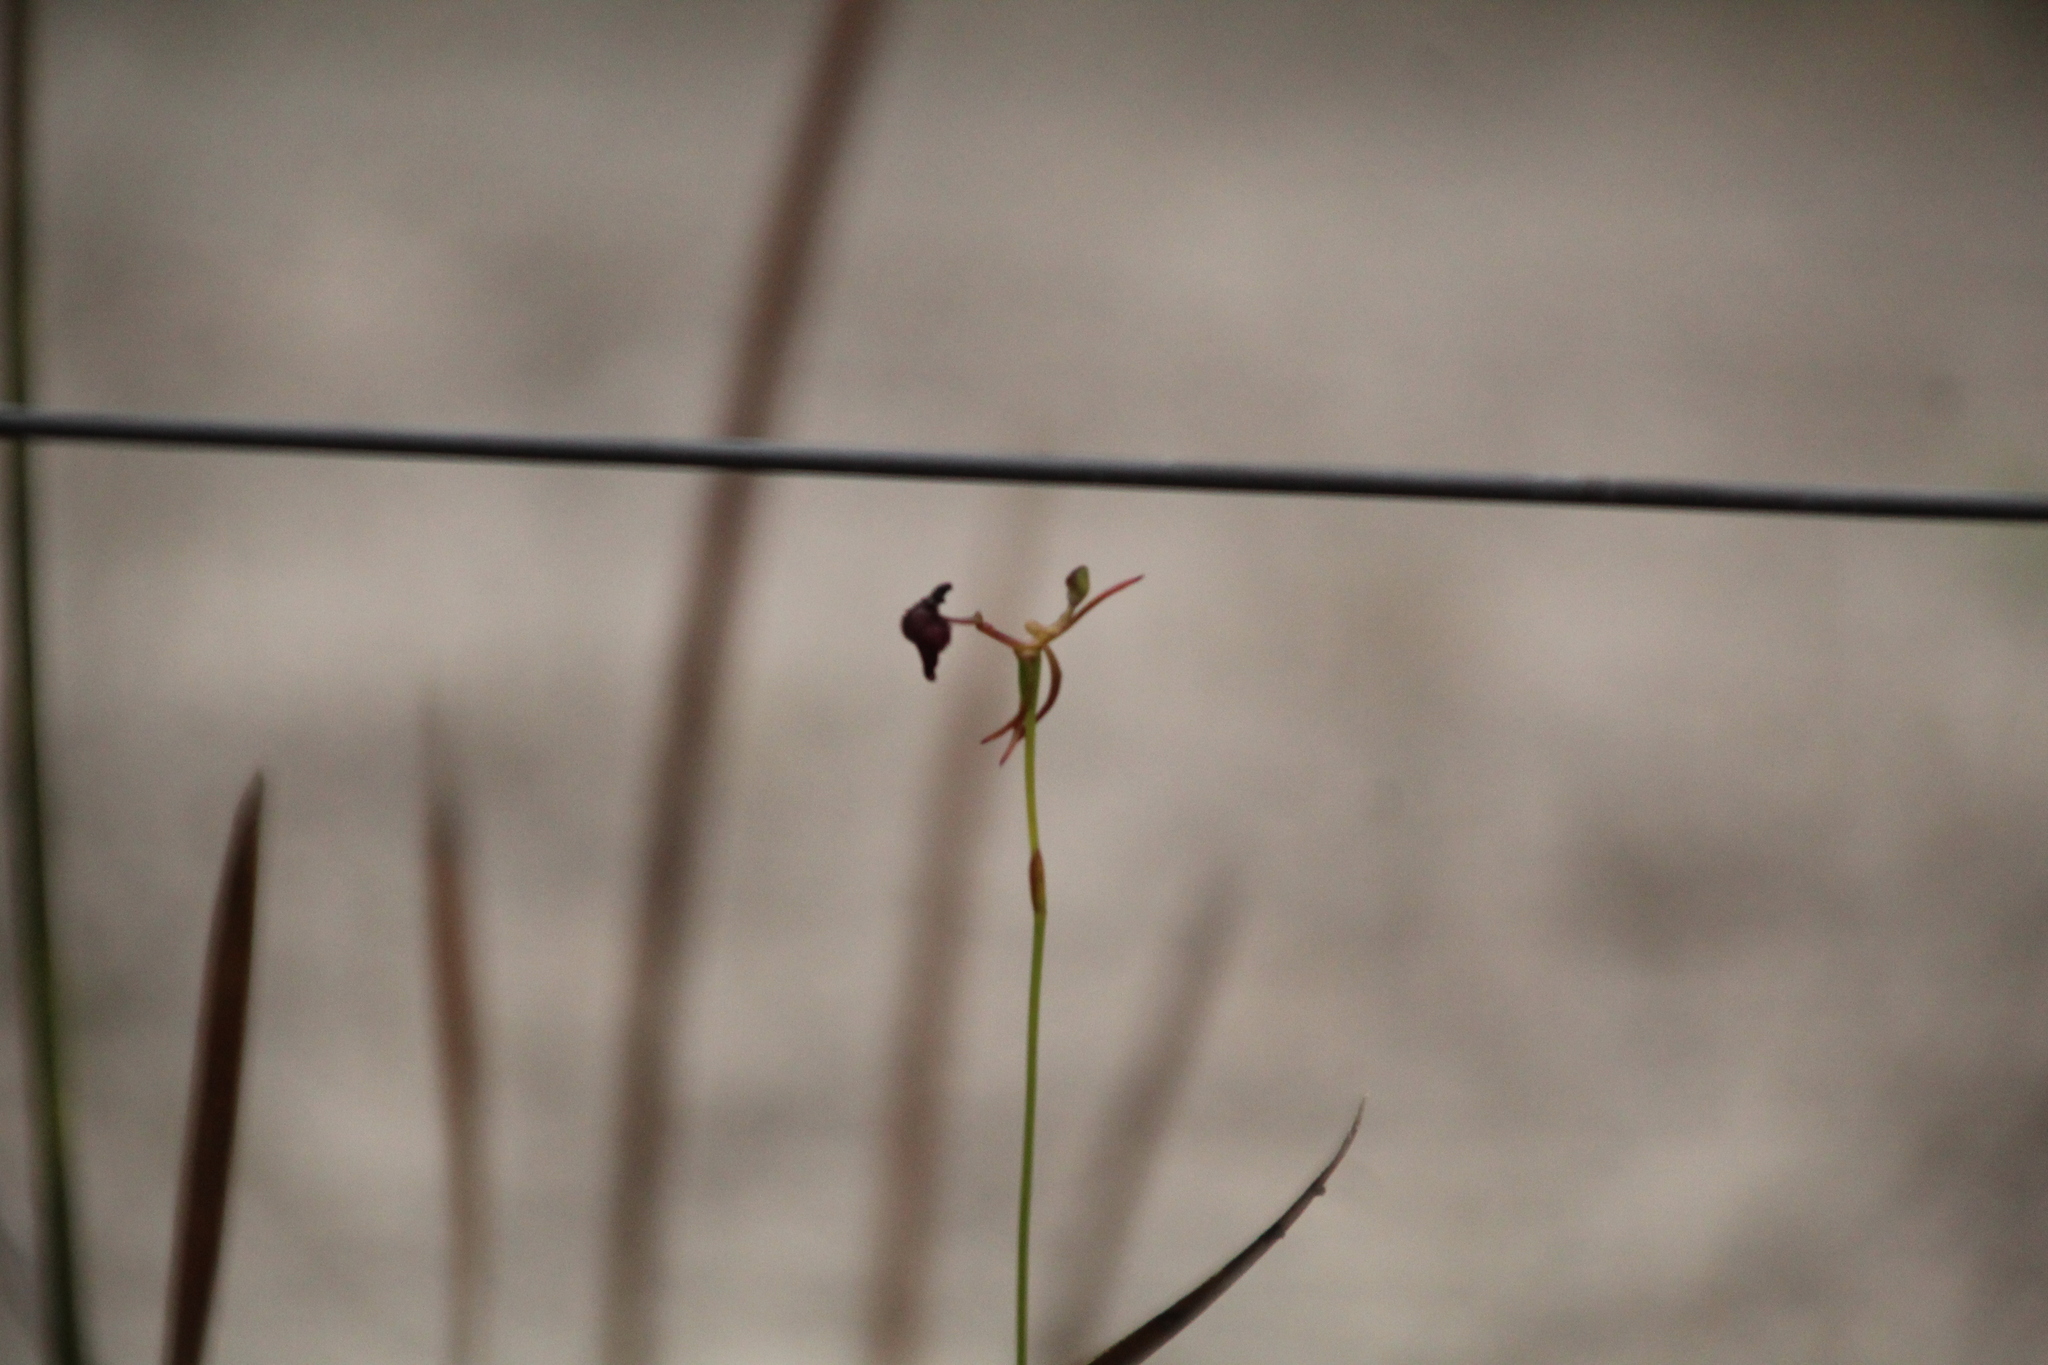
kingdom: Plantae
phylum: Tracheophyta
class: Liliopsida
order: Asparagales
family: Orchidaceae
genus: Drakaea
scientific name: Drakaea glyptodon
